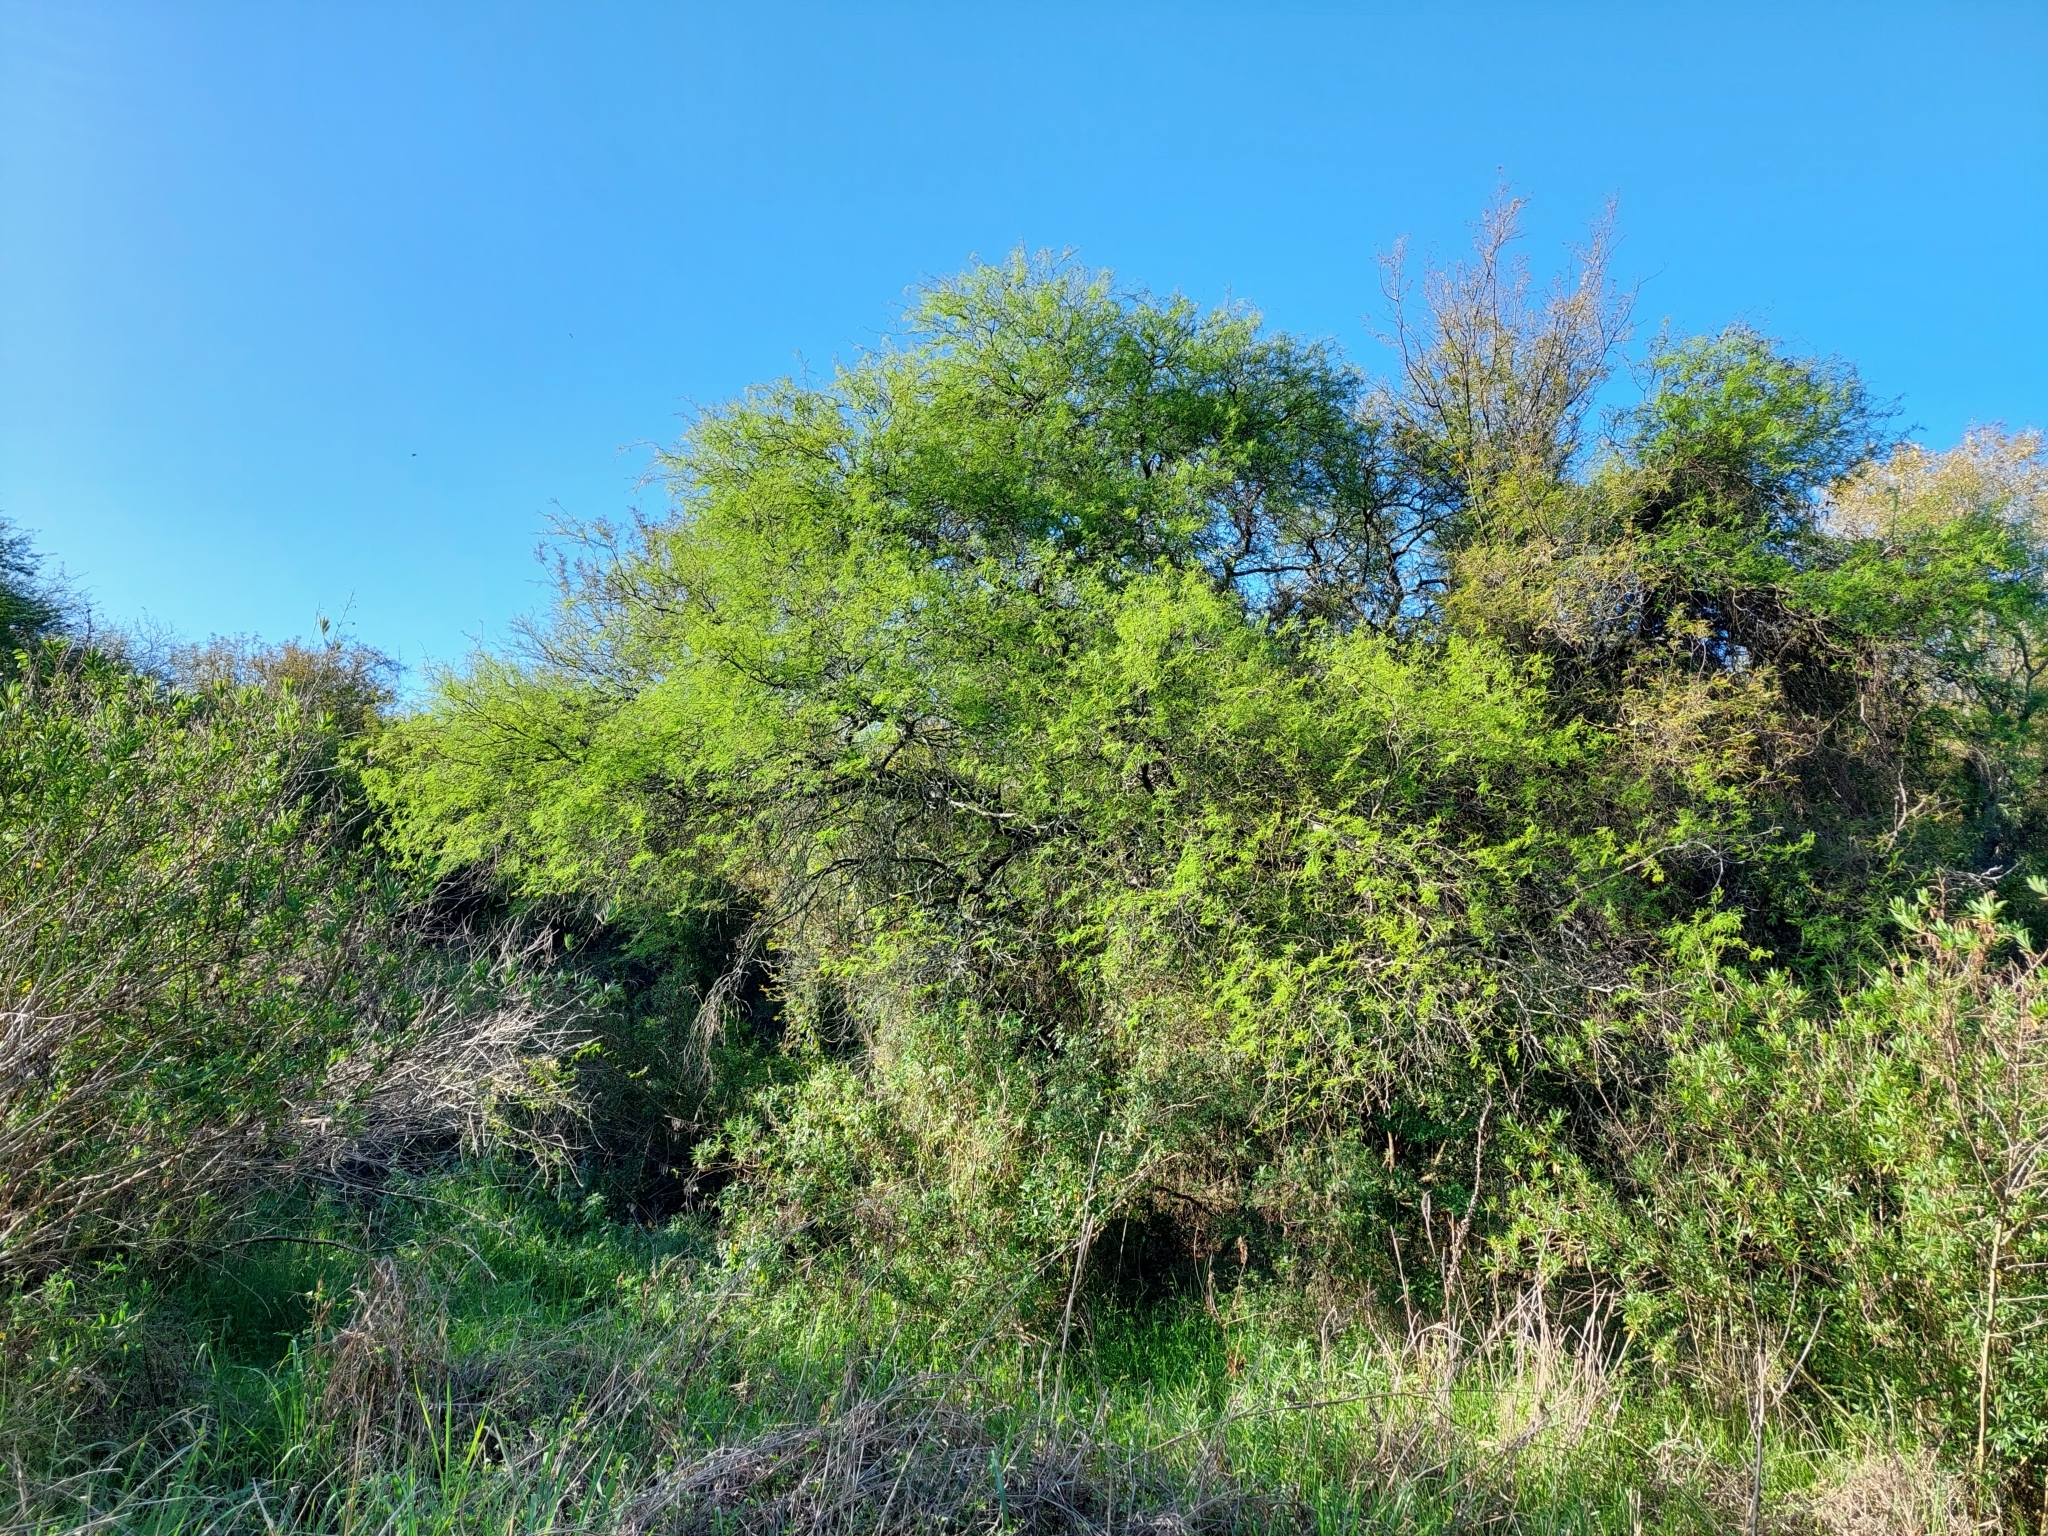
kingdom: Plantae
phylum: Tracheophyta
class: Magnoliopsida
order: Fabales
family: Fabaceae
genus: Prosopis
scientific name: Prosopis nigra
